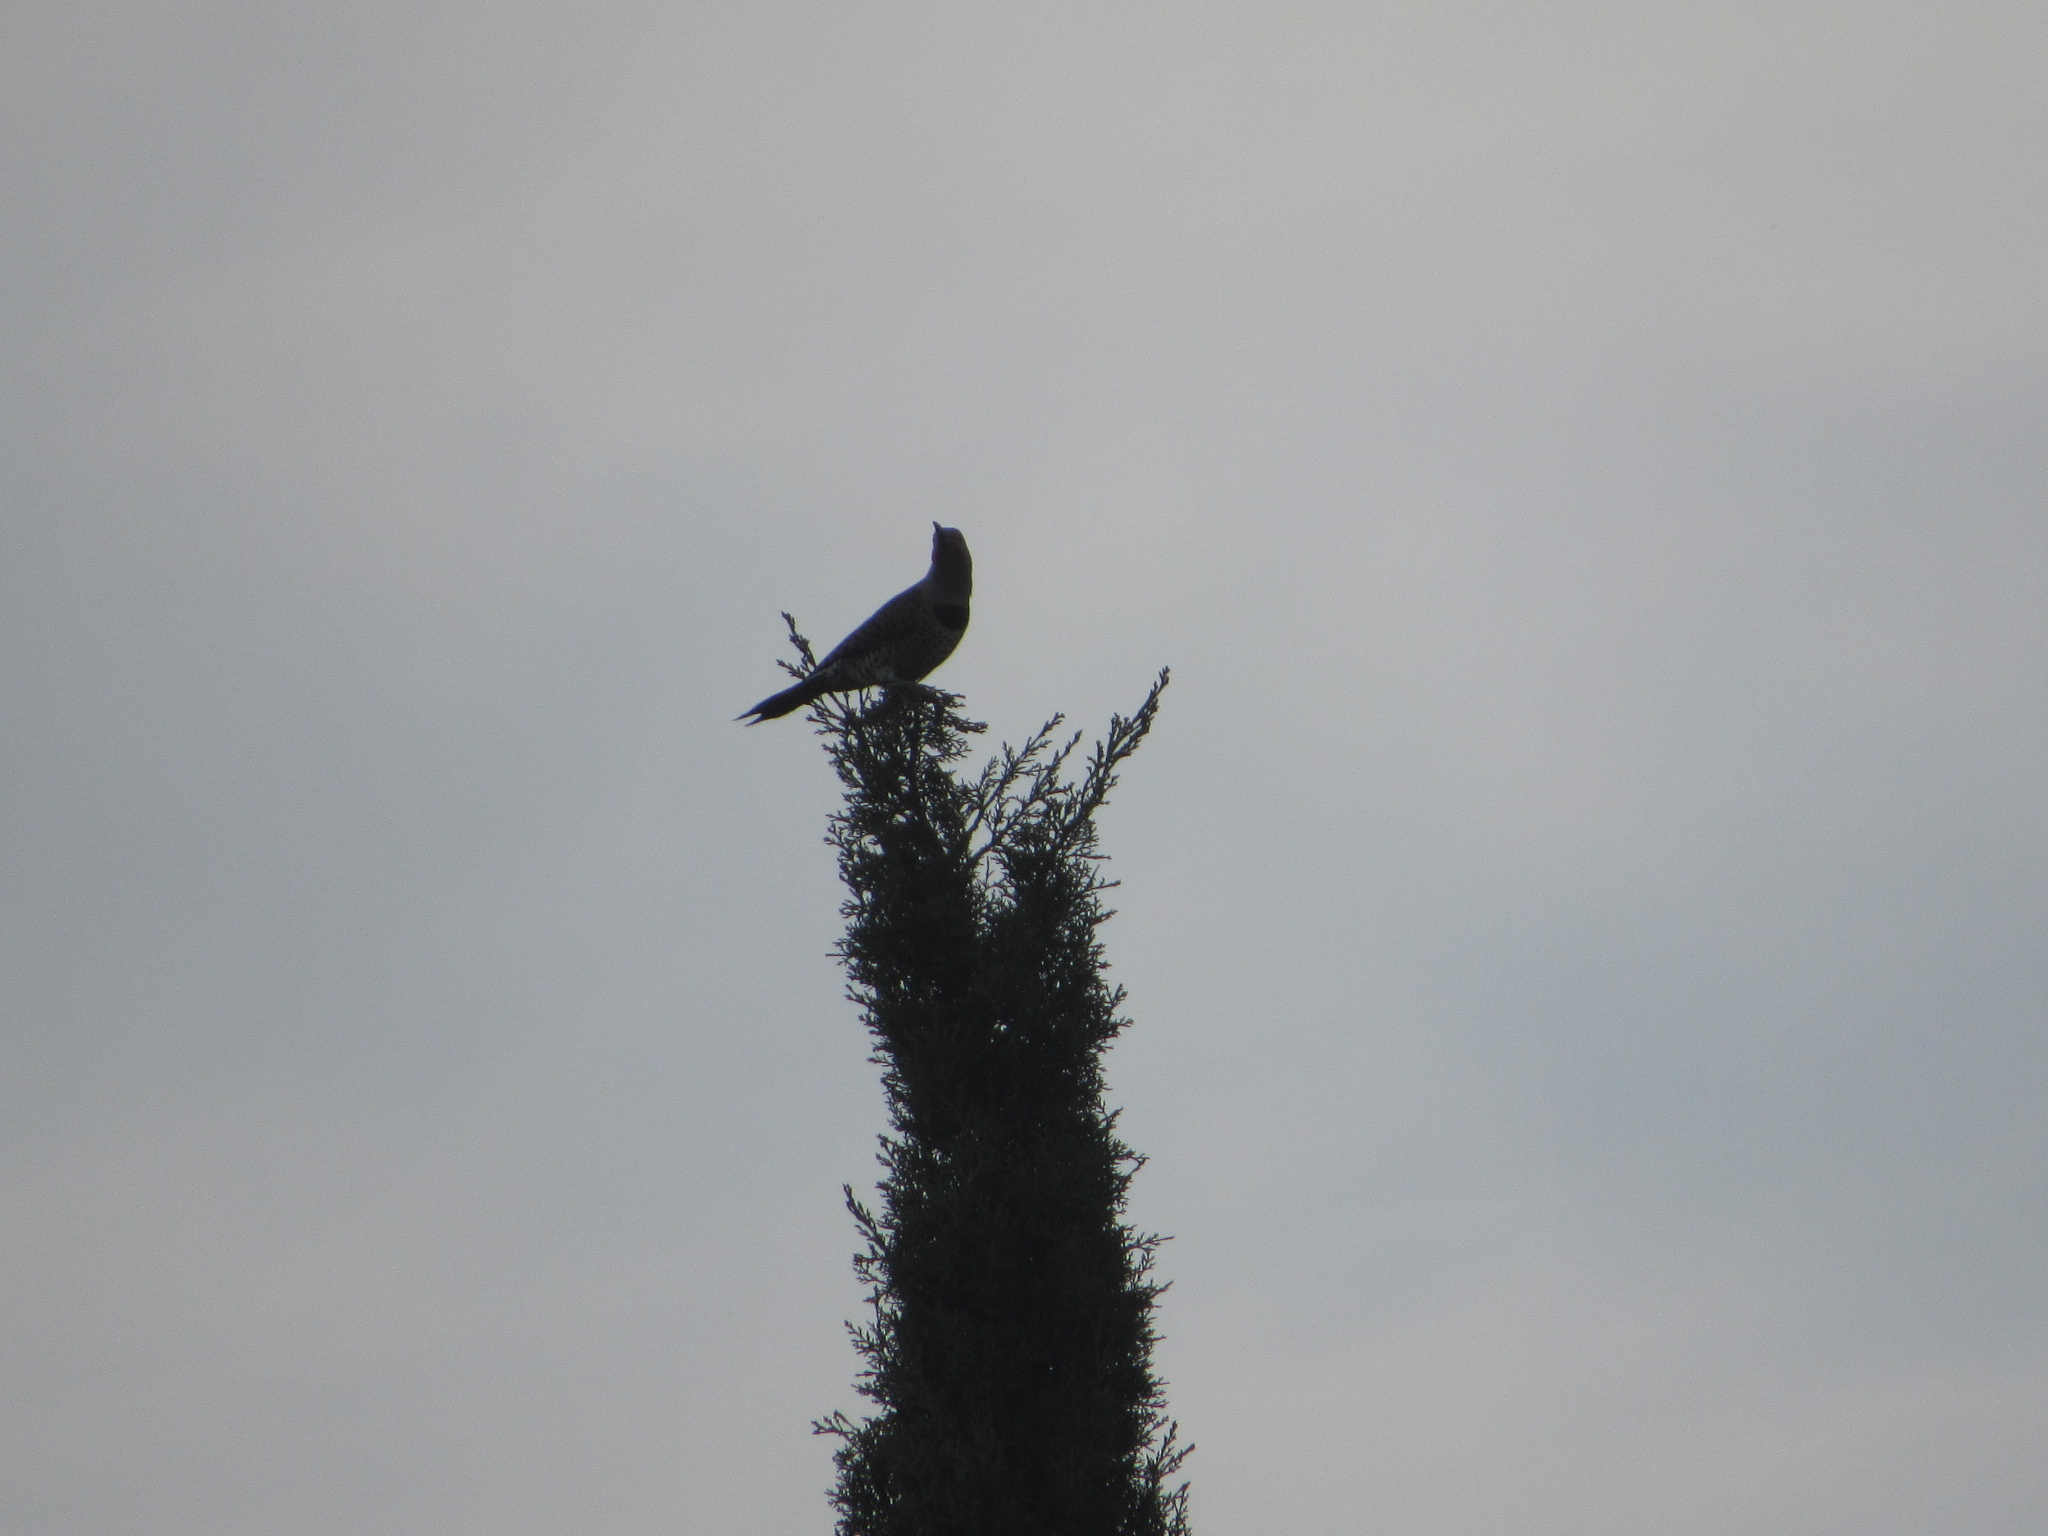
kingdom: Animalia
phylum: Chordata
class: Aves
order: Piciformes
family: Picidae
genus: Colaptes
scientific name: Colaptes auratus
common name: Northern flicker
